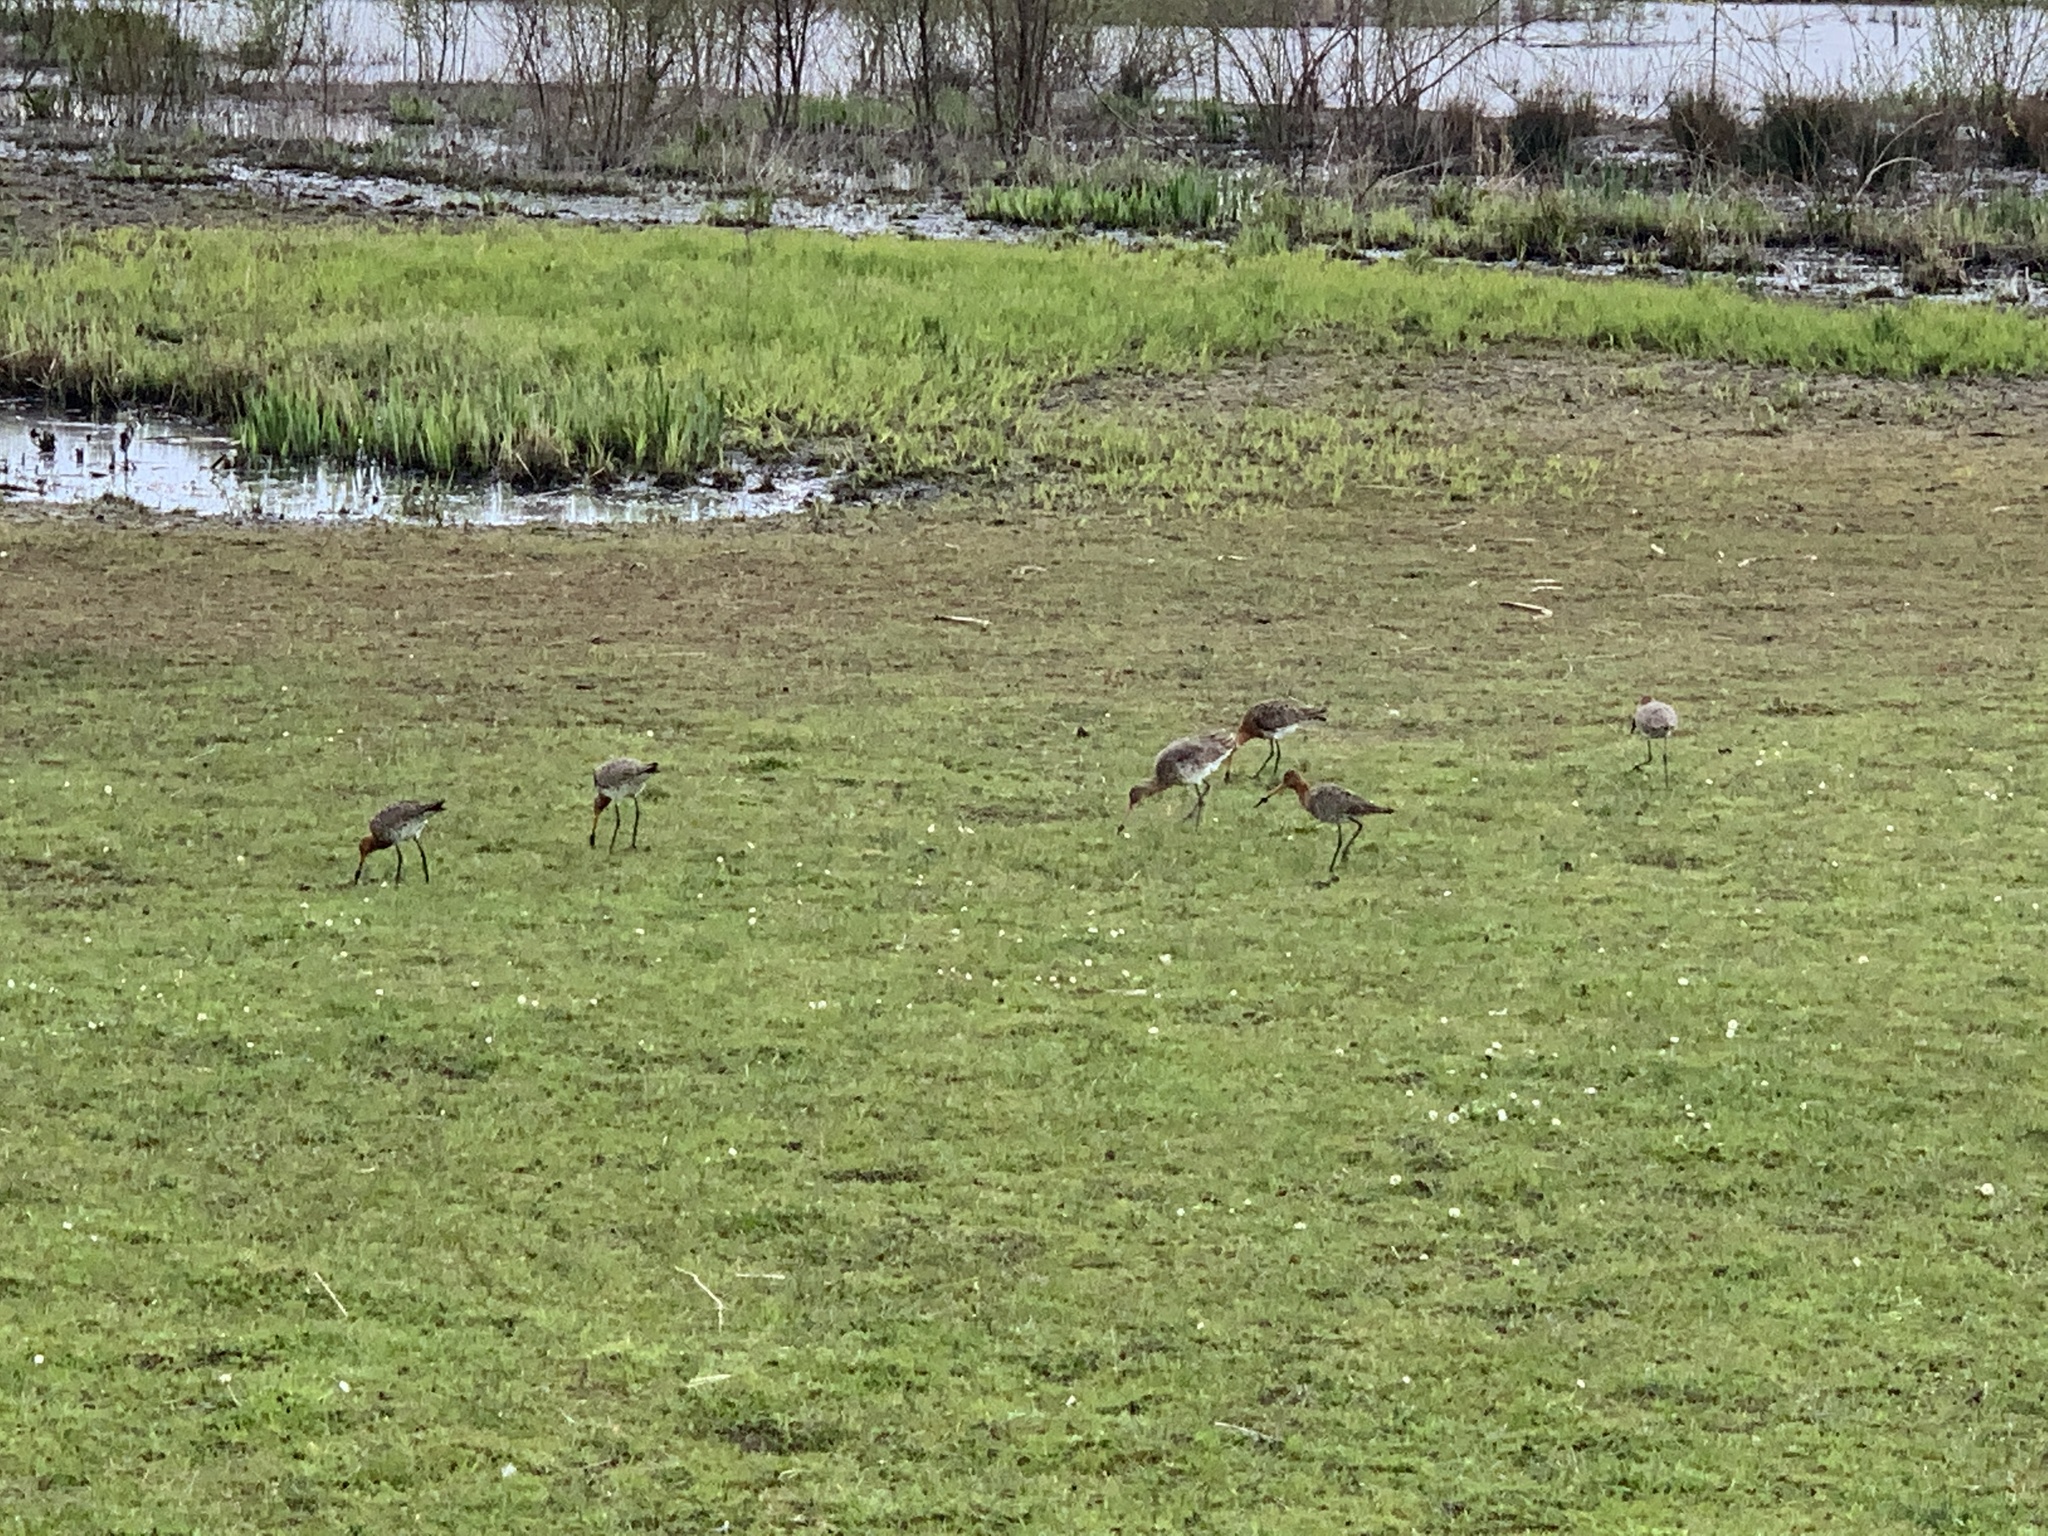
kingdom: Animalia
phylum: Chordata
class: Aves
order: Charadriiformes
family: Scolopacidae
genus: Limosa
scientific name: Limosa limosa
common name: Black-tailed godwit
